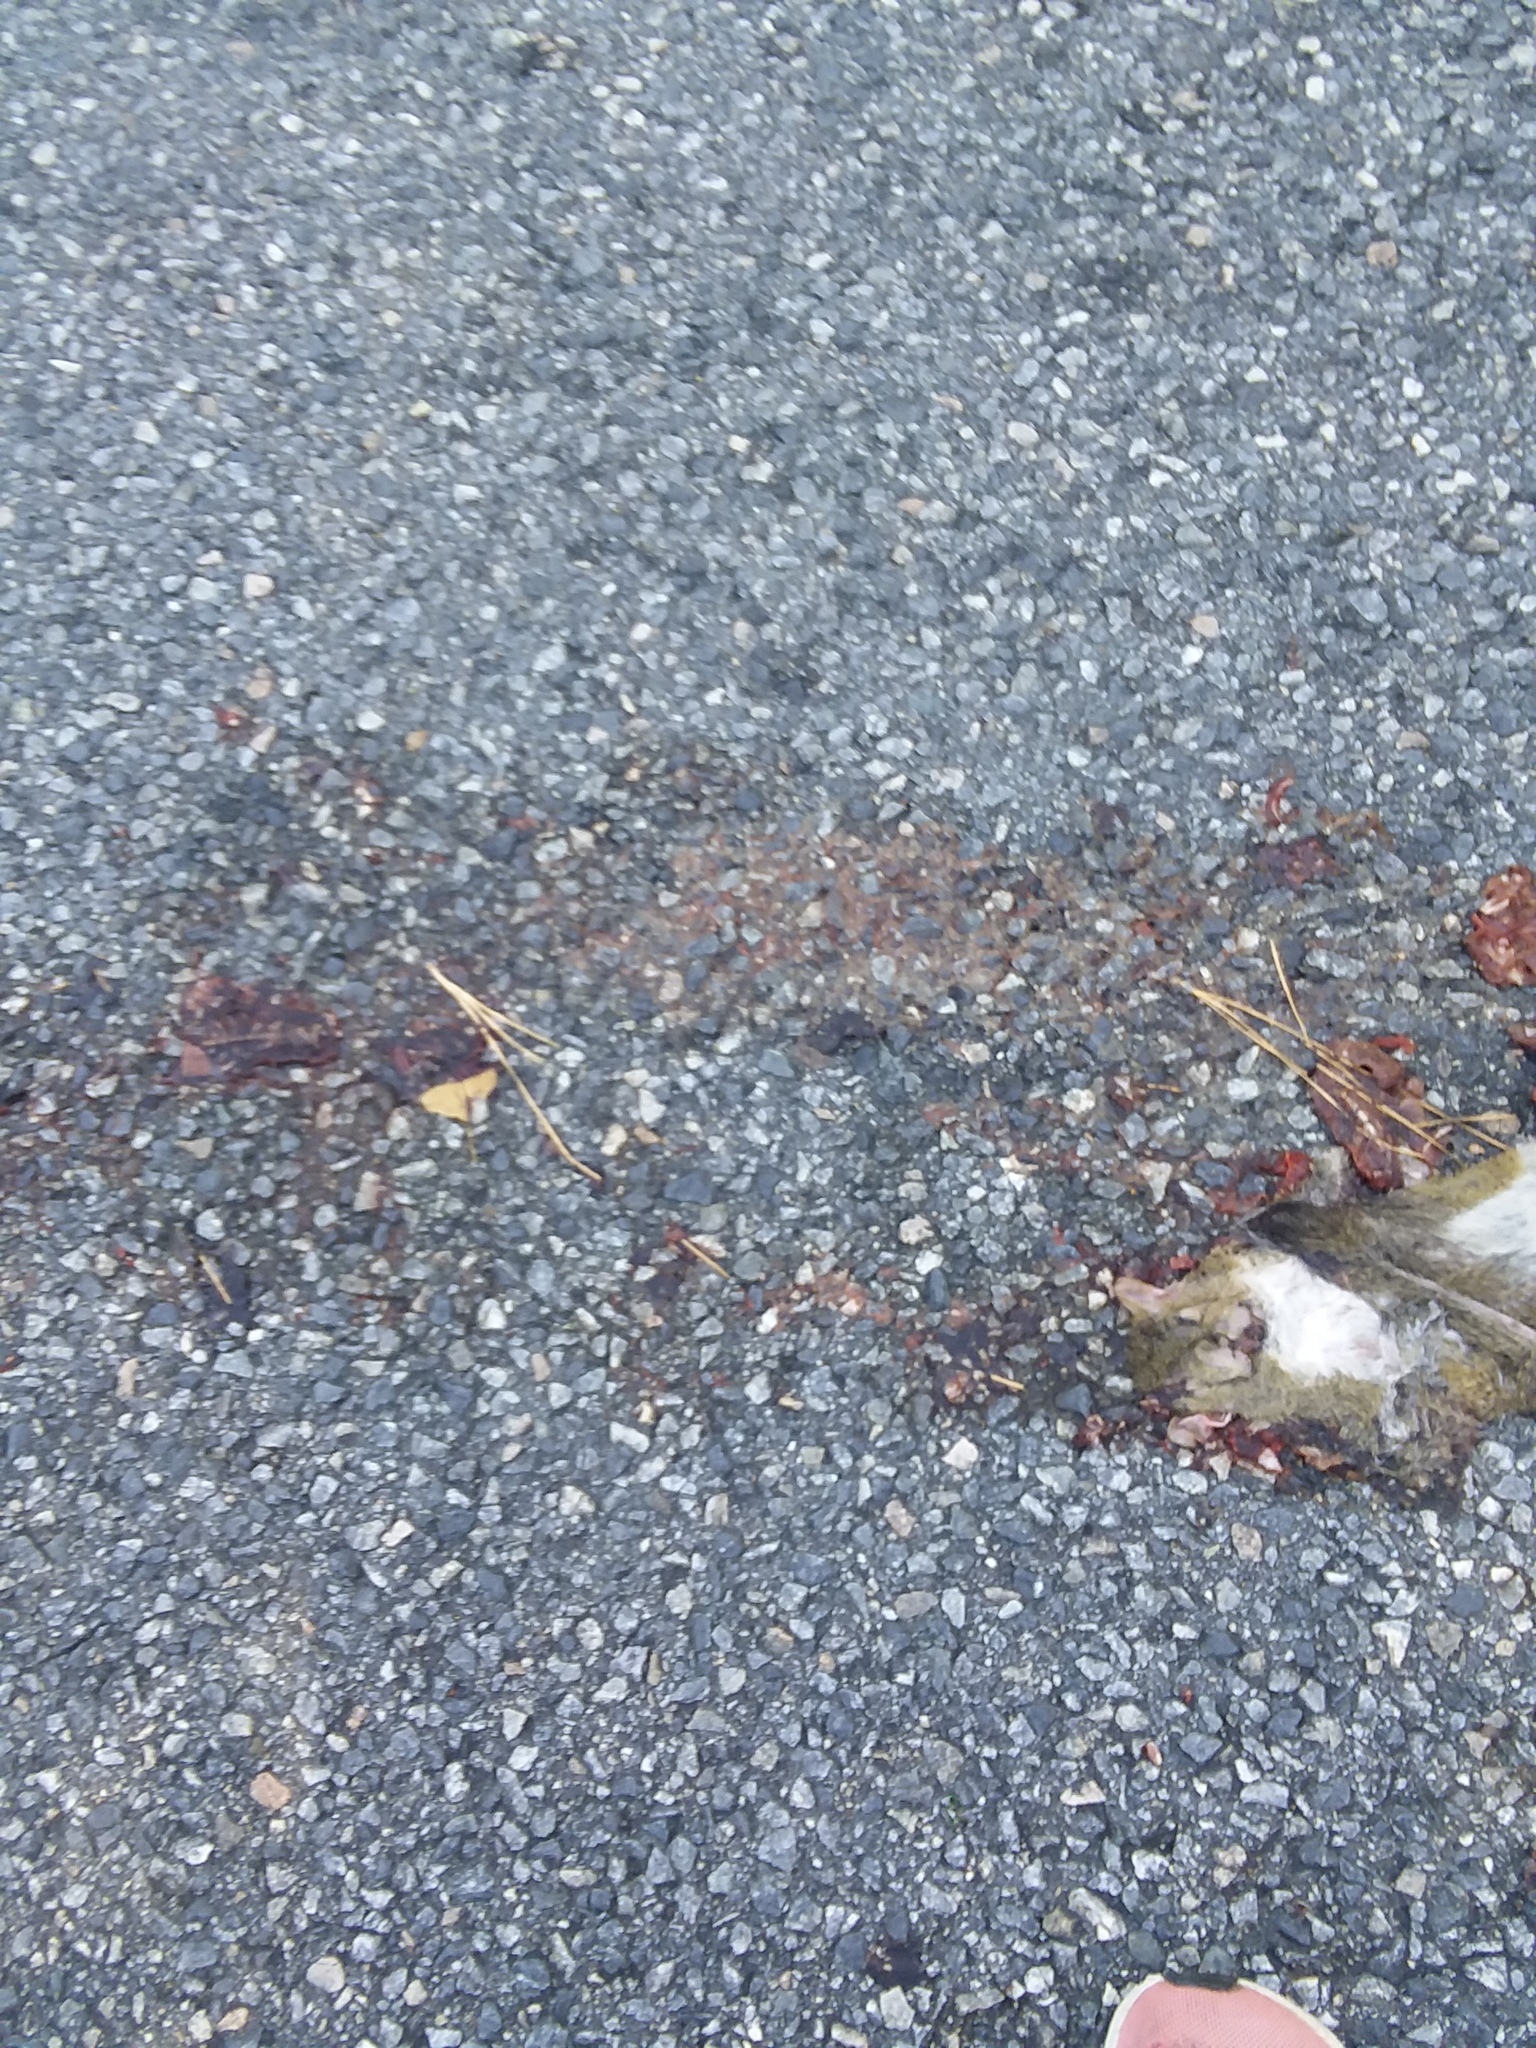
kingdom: Animalia
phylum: Chordata
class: Mammalia
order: Rodentia
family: Sciuridae
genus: Sciurus
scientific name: Sciurus carolinensis
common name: Eastern gray squirrel
